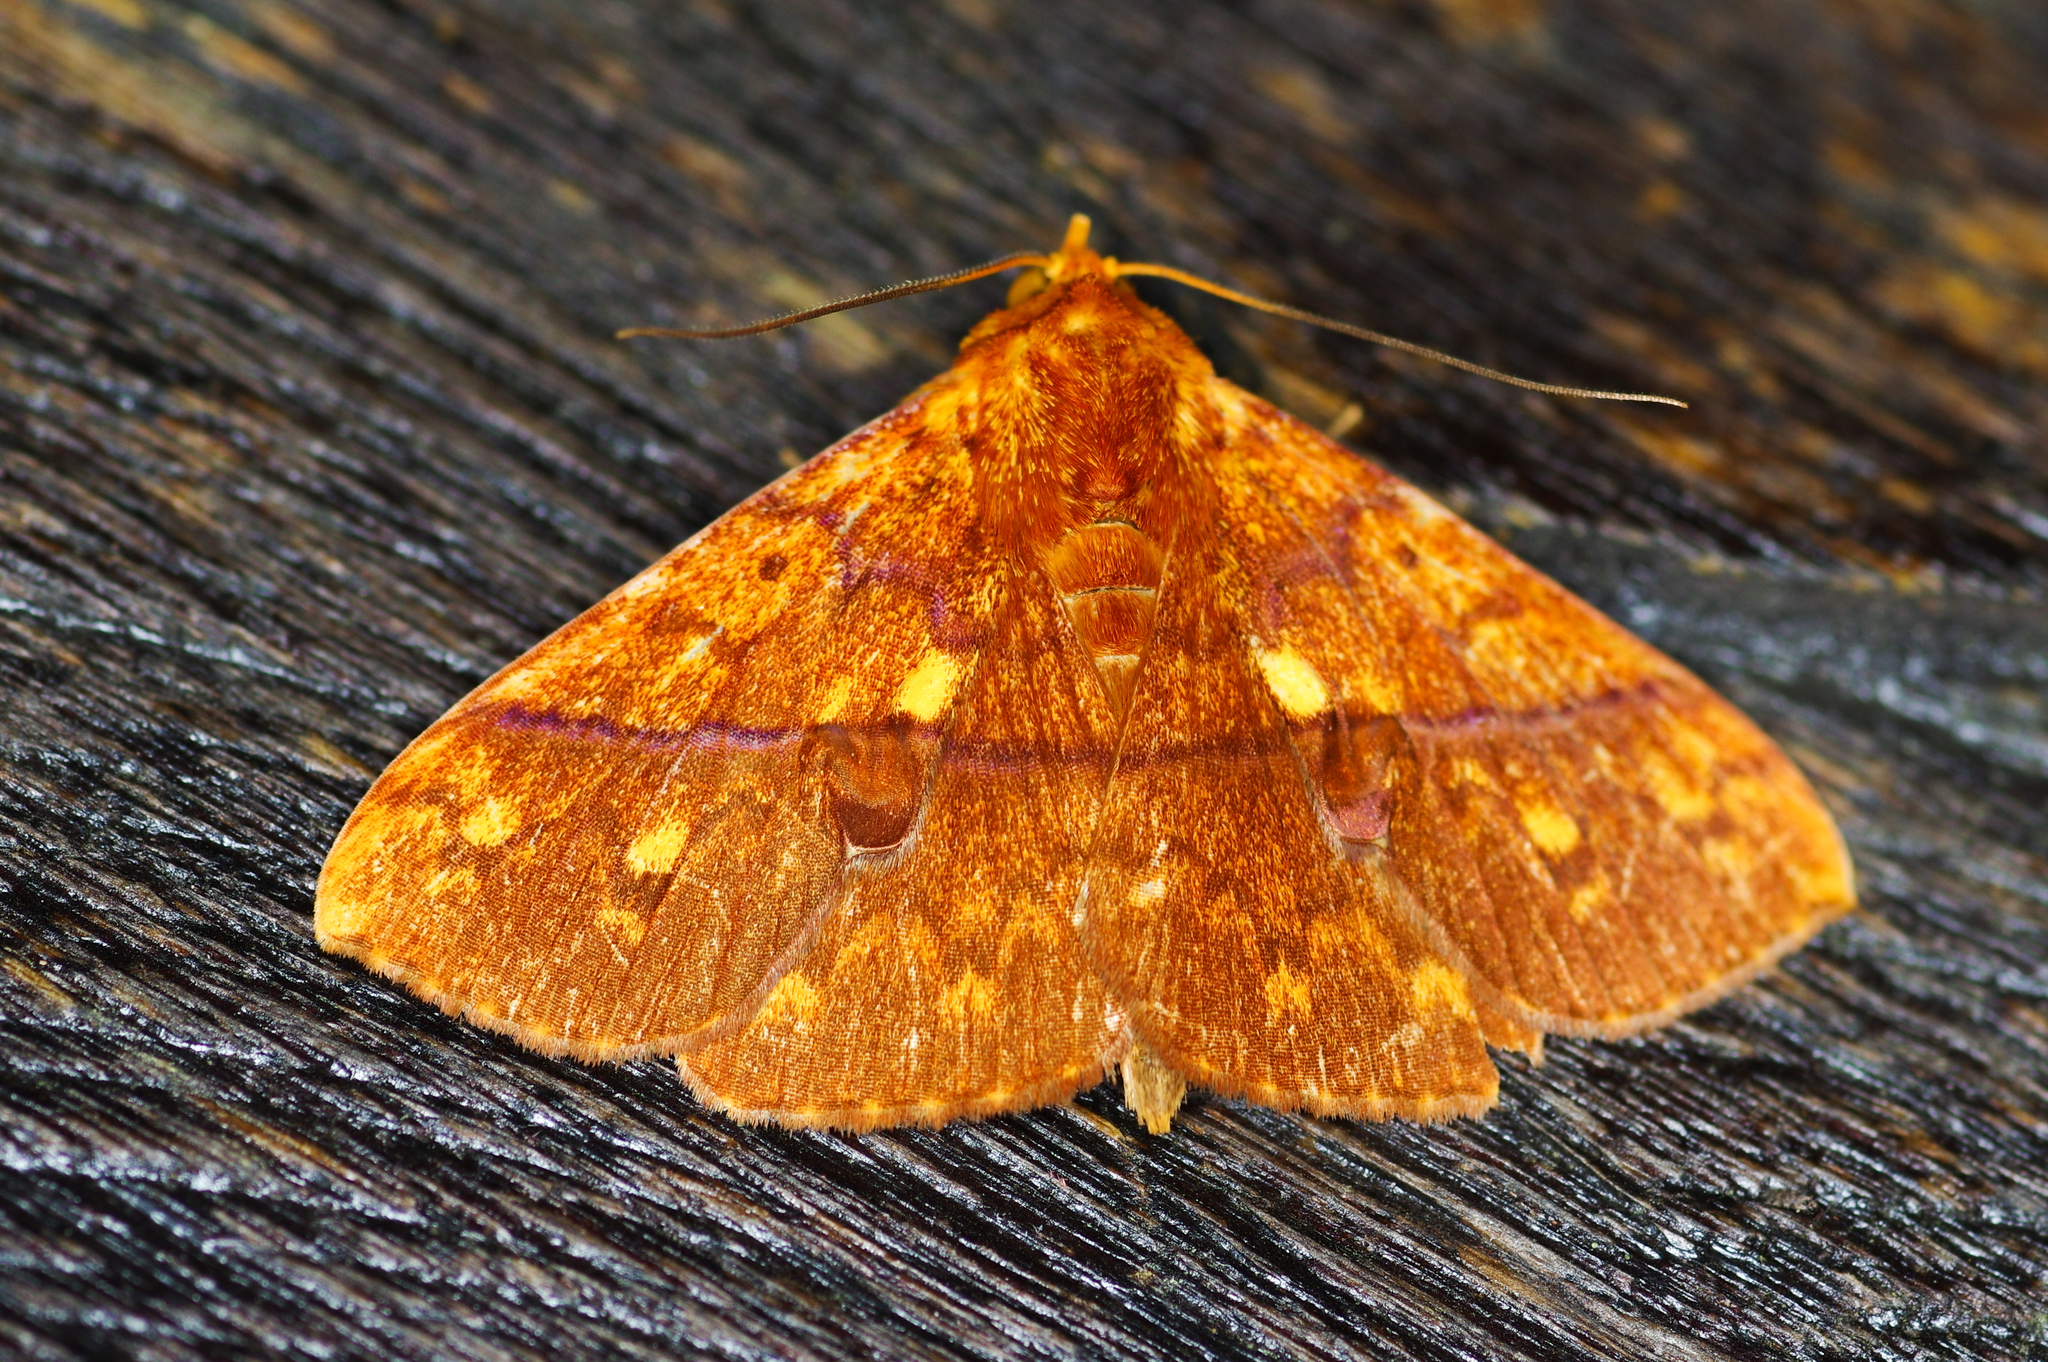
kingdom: Animalia
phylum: Arthropoda
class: Insecta
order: Lepidoptera
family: Erebidae
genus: Epitausa
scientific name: Epitausa dilina
